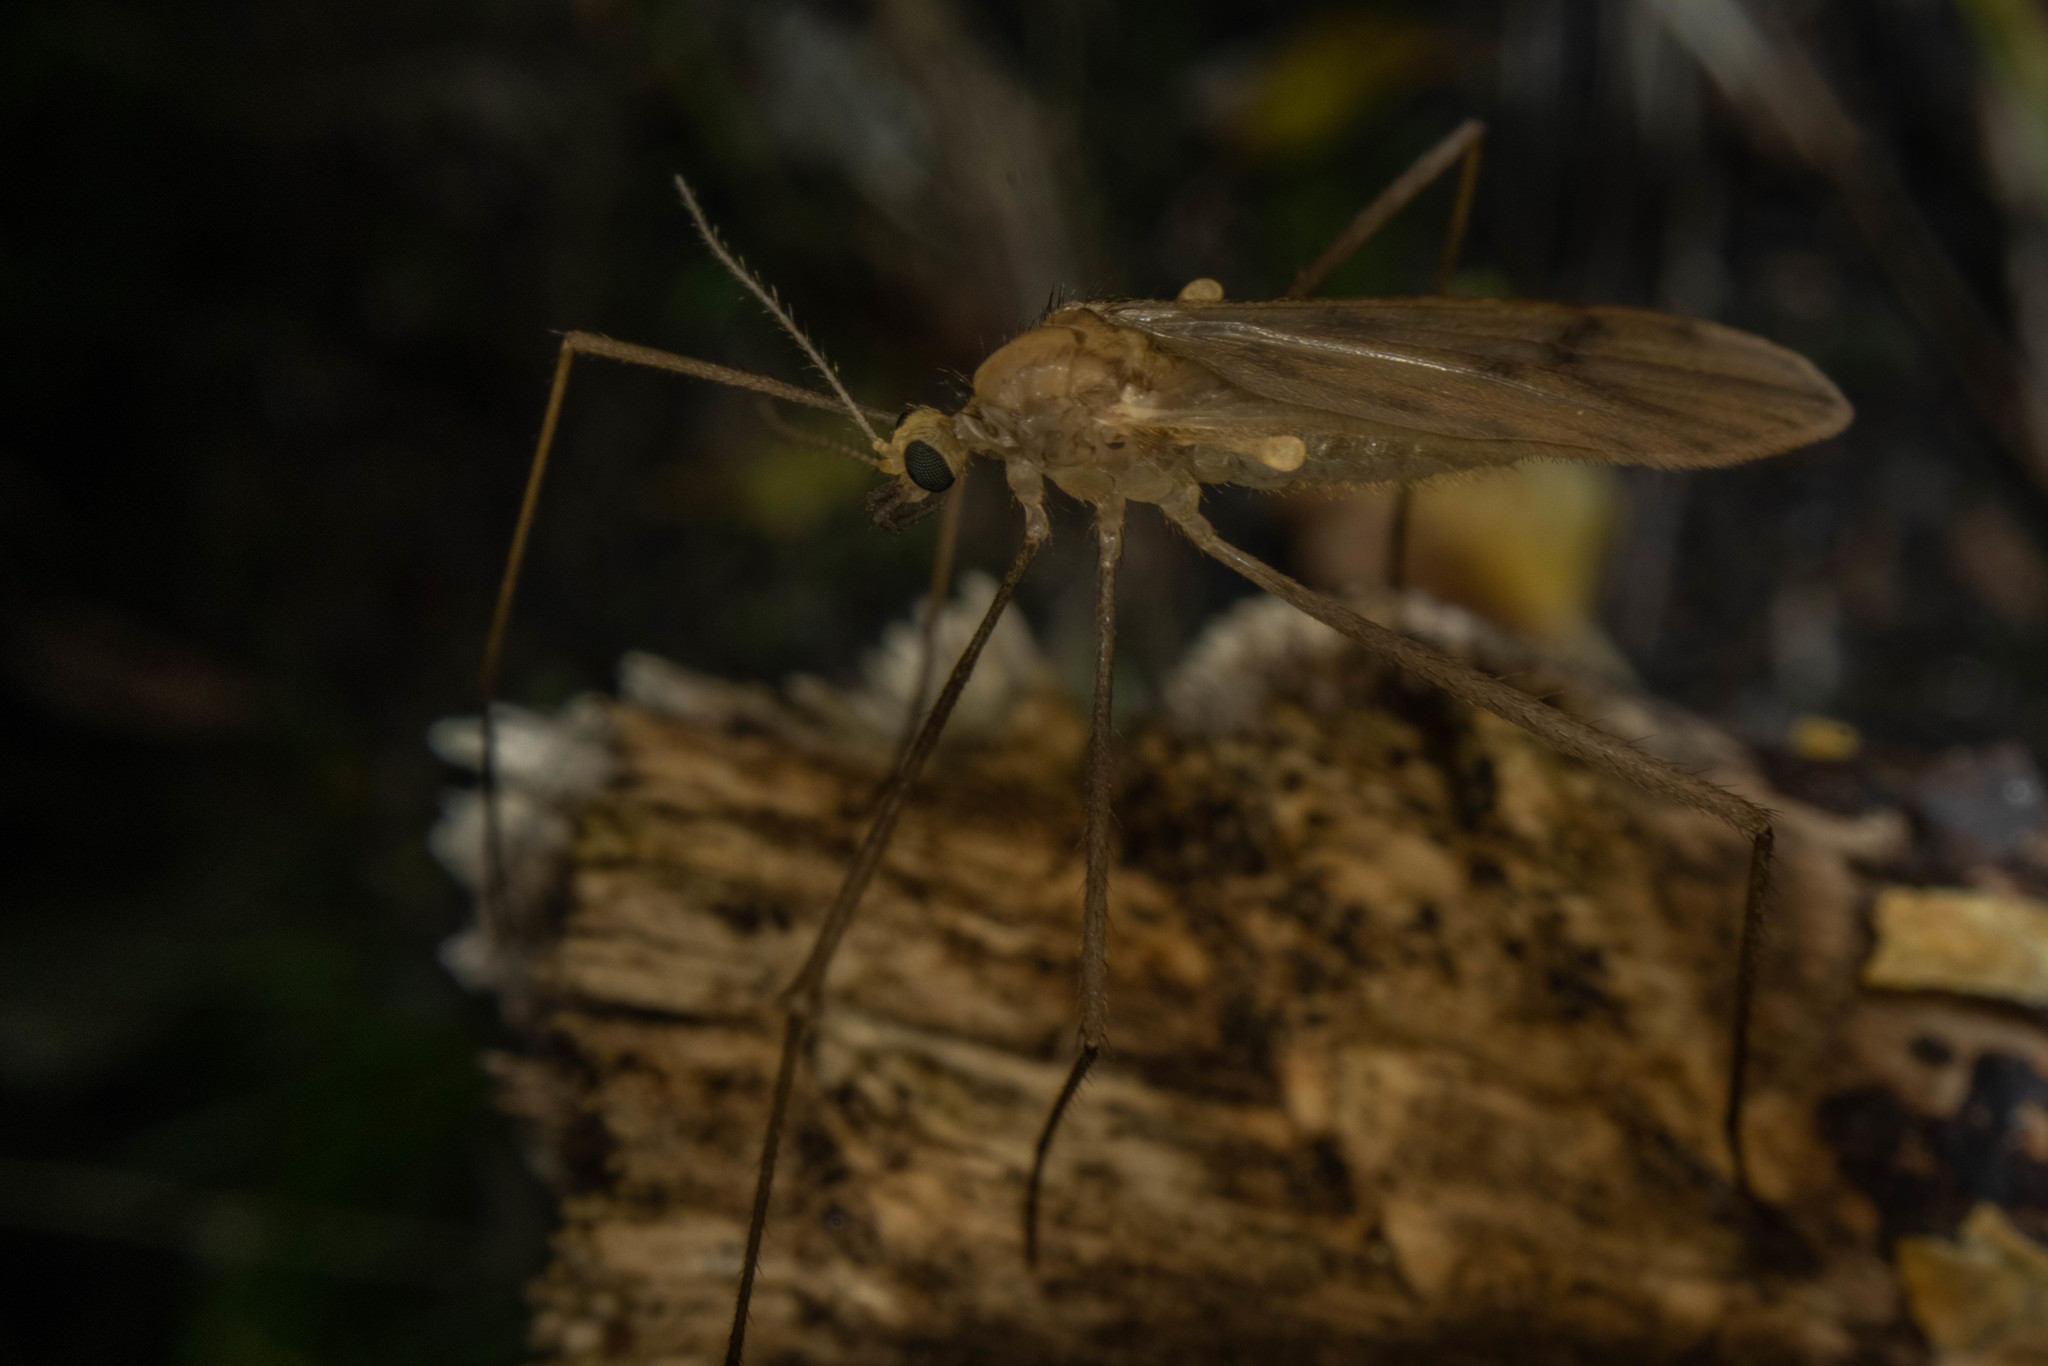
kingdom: Animalia
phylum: Arthropoda
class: Insecta
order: Diptera
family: Limoniidae
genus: Amphineurus
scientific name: Amphineurus insulsus
